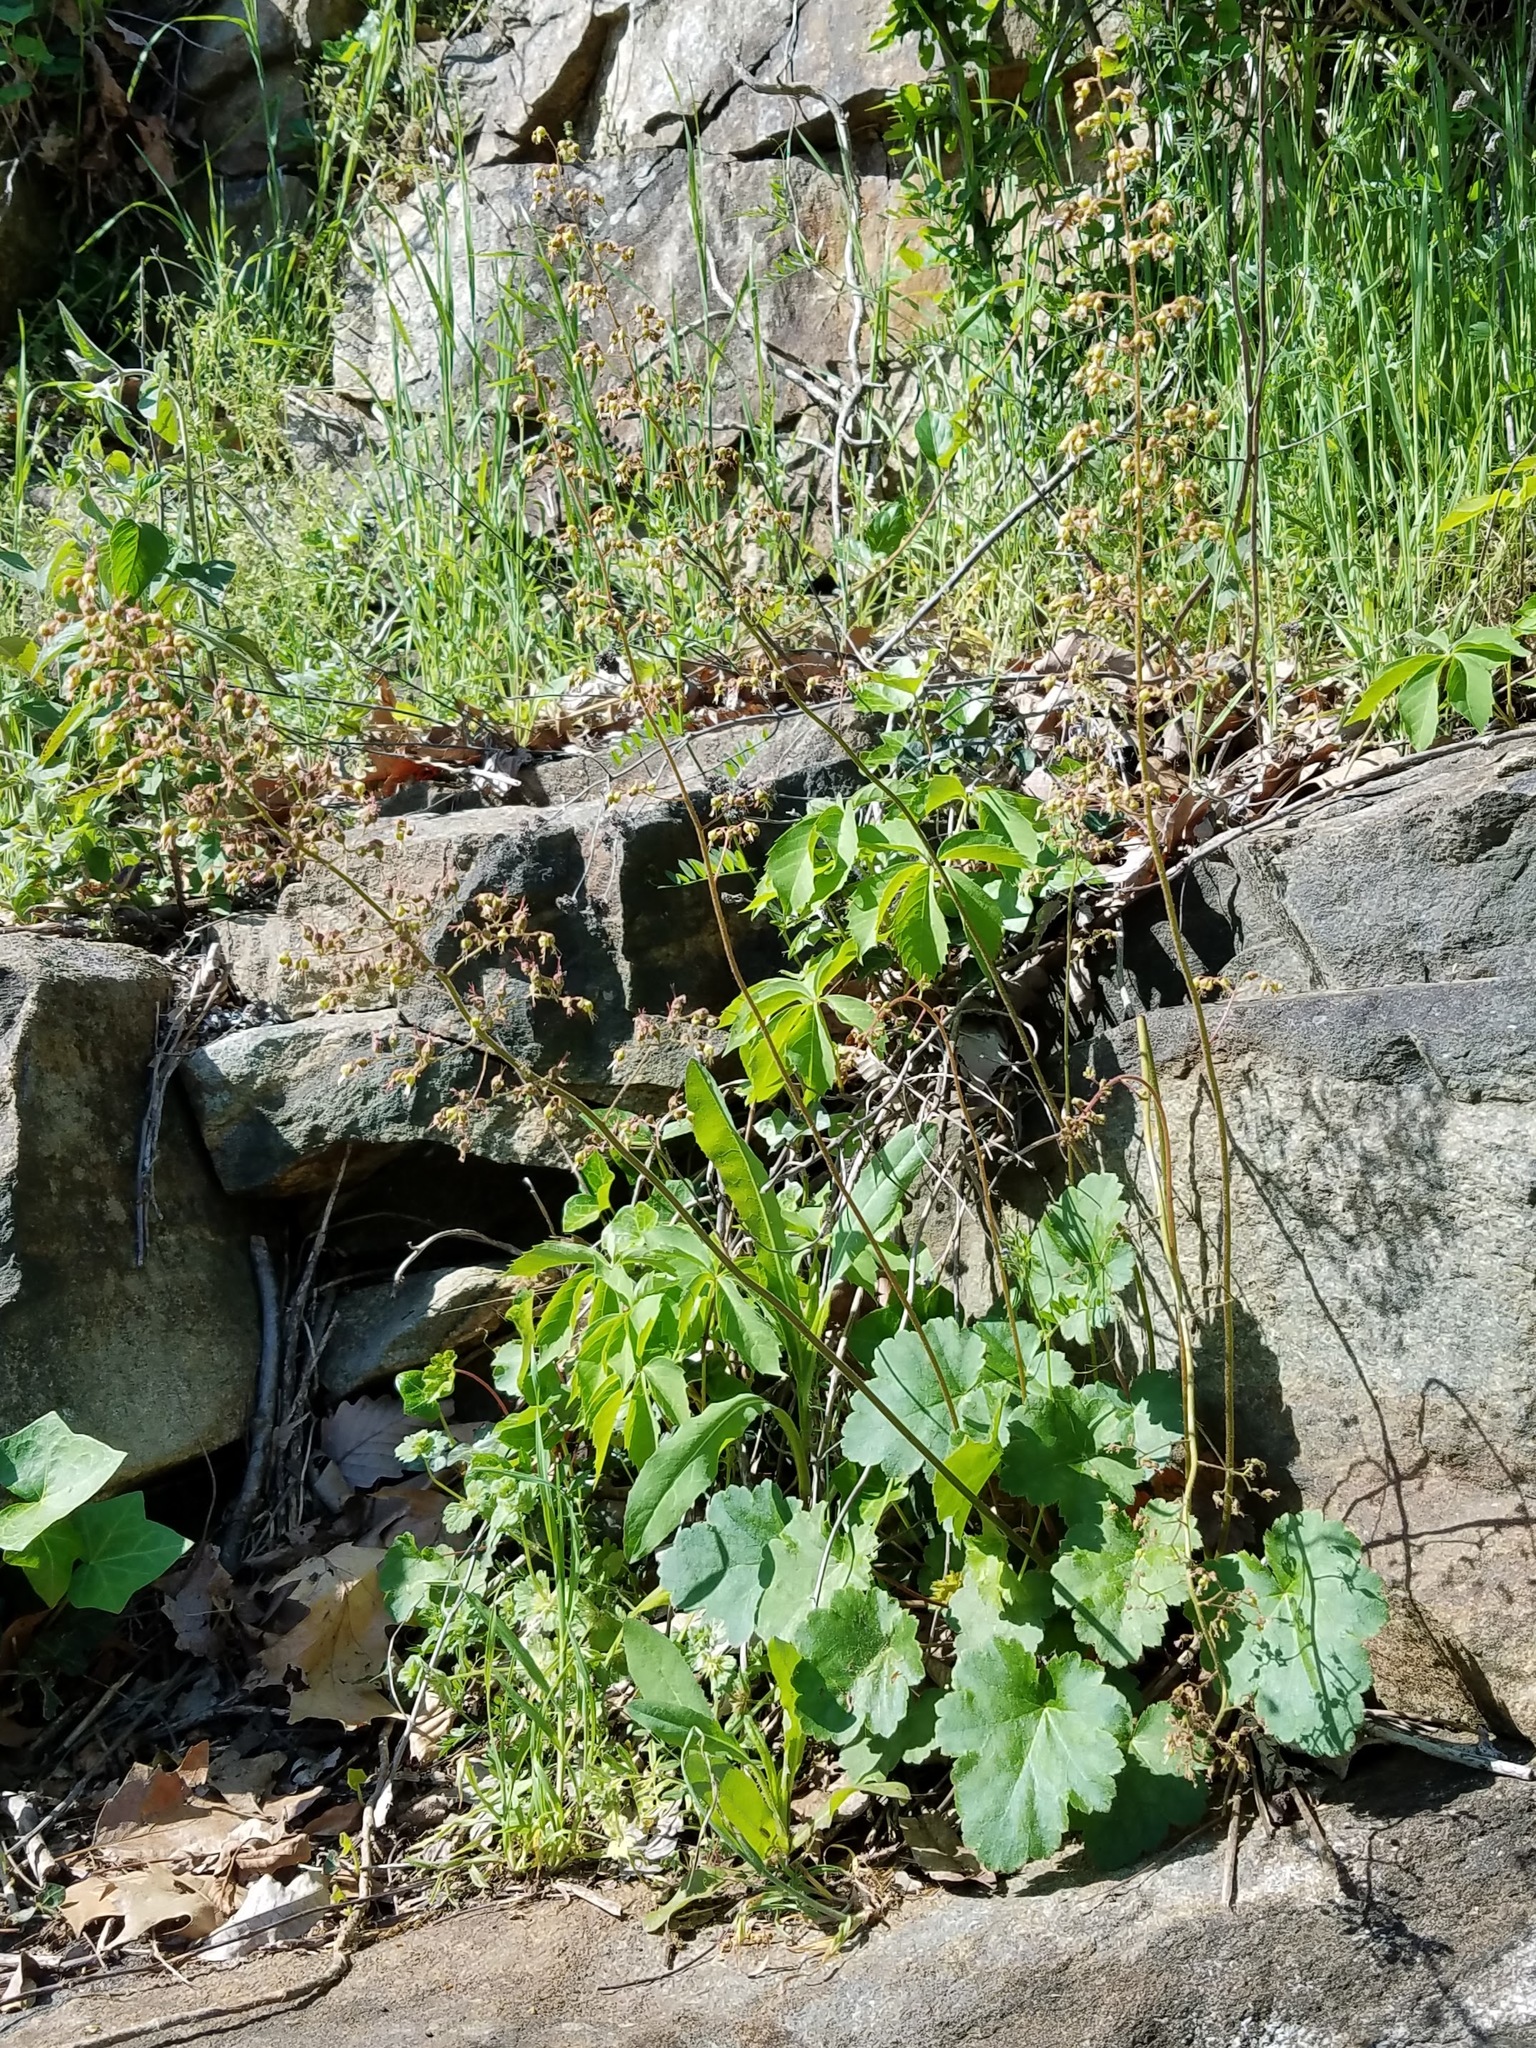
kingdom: Plantae
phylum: Tracheophyta
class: Magnoliopsida
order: Saxifragales
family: Saxifragaceae
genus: Heuchera
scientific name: Heuchera americana
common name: Alumroot
